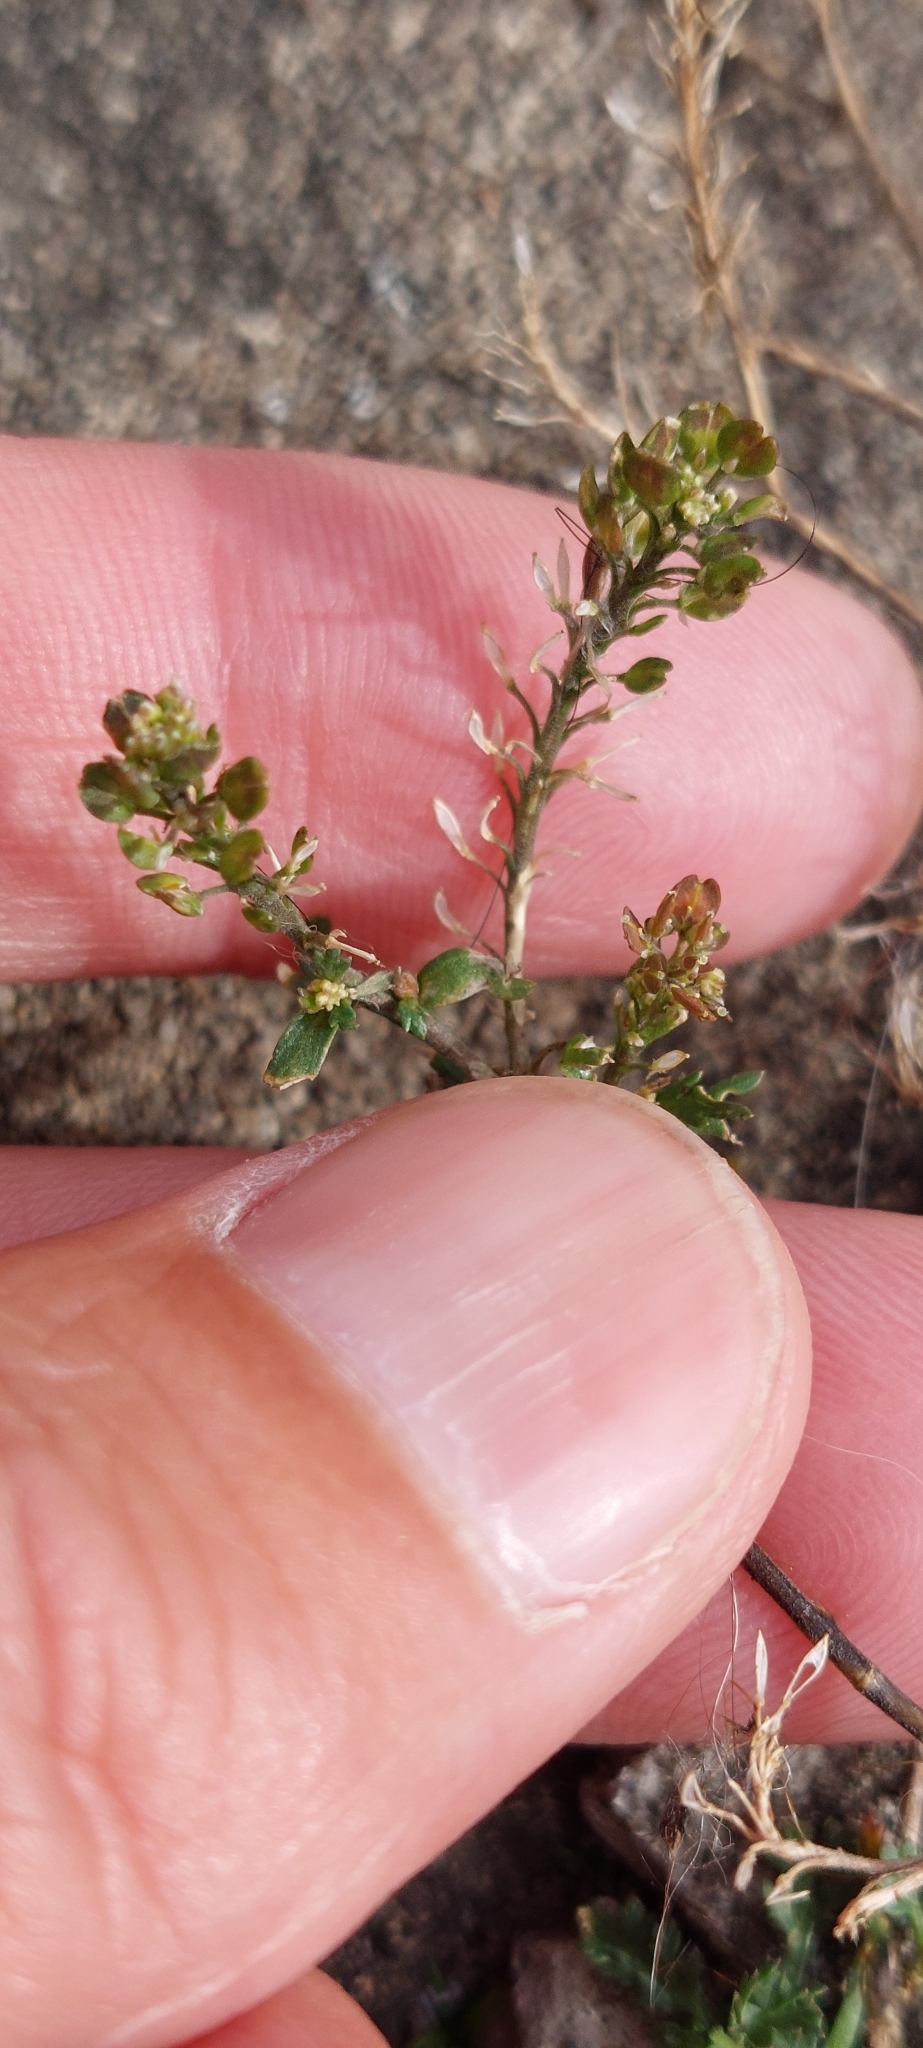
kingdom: Plantae
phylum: Tracheophyta
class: Magnoliopsida
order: Brassicales
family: Brassicaceae
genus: Lepidium
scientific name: Lepidium bipinnatifidum
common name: Wayside pepperwort
